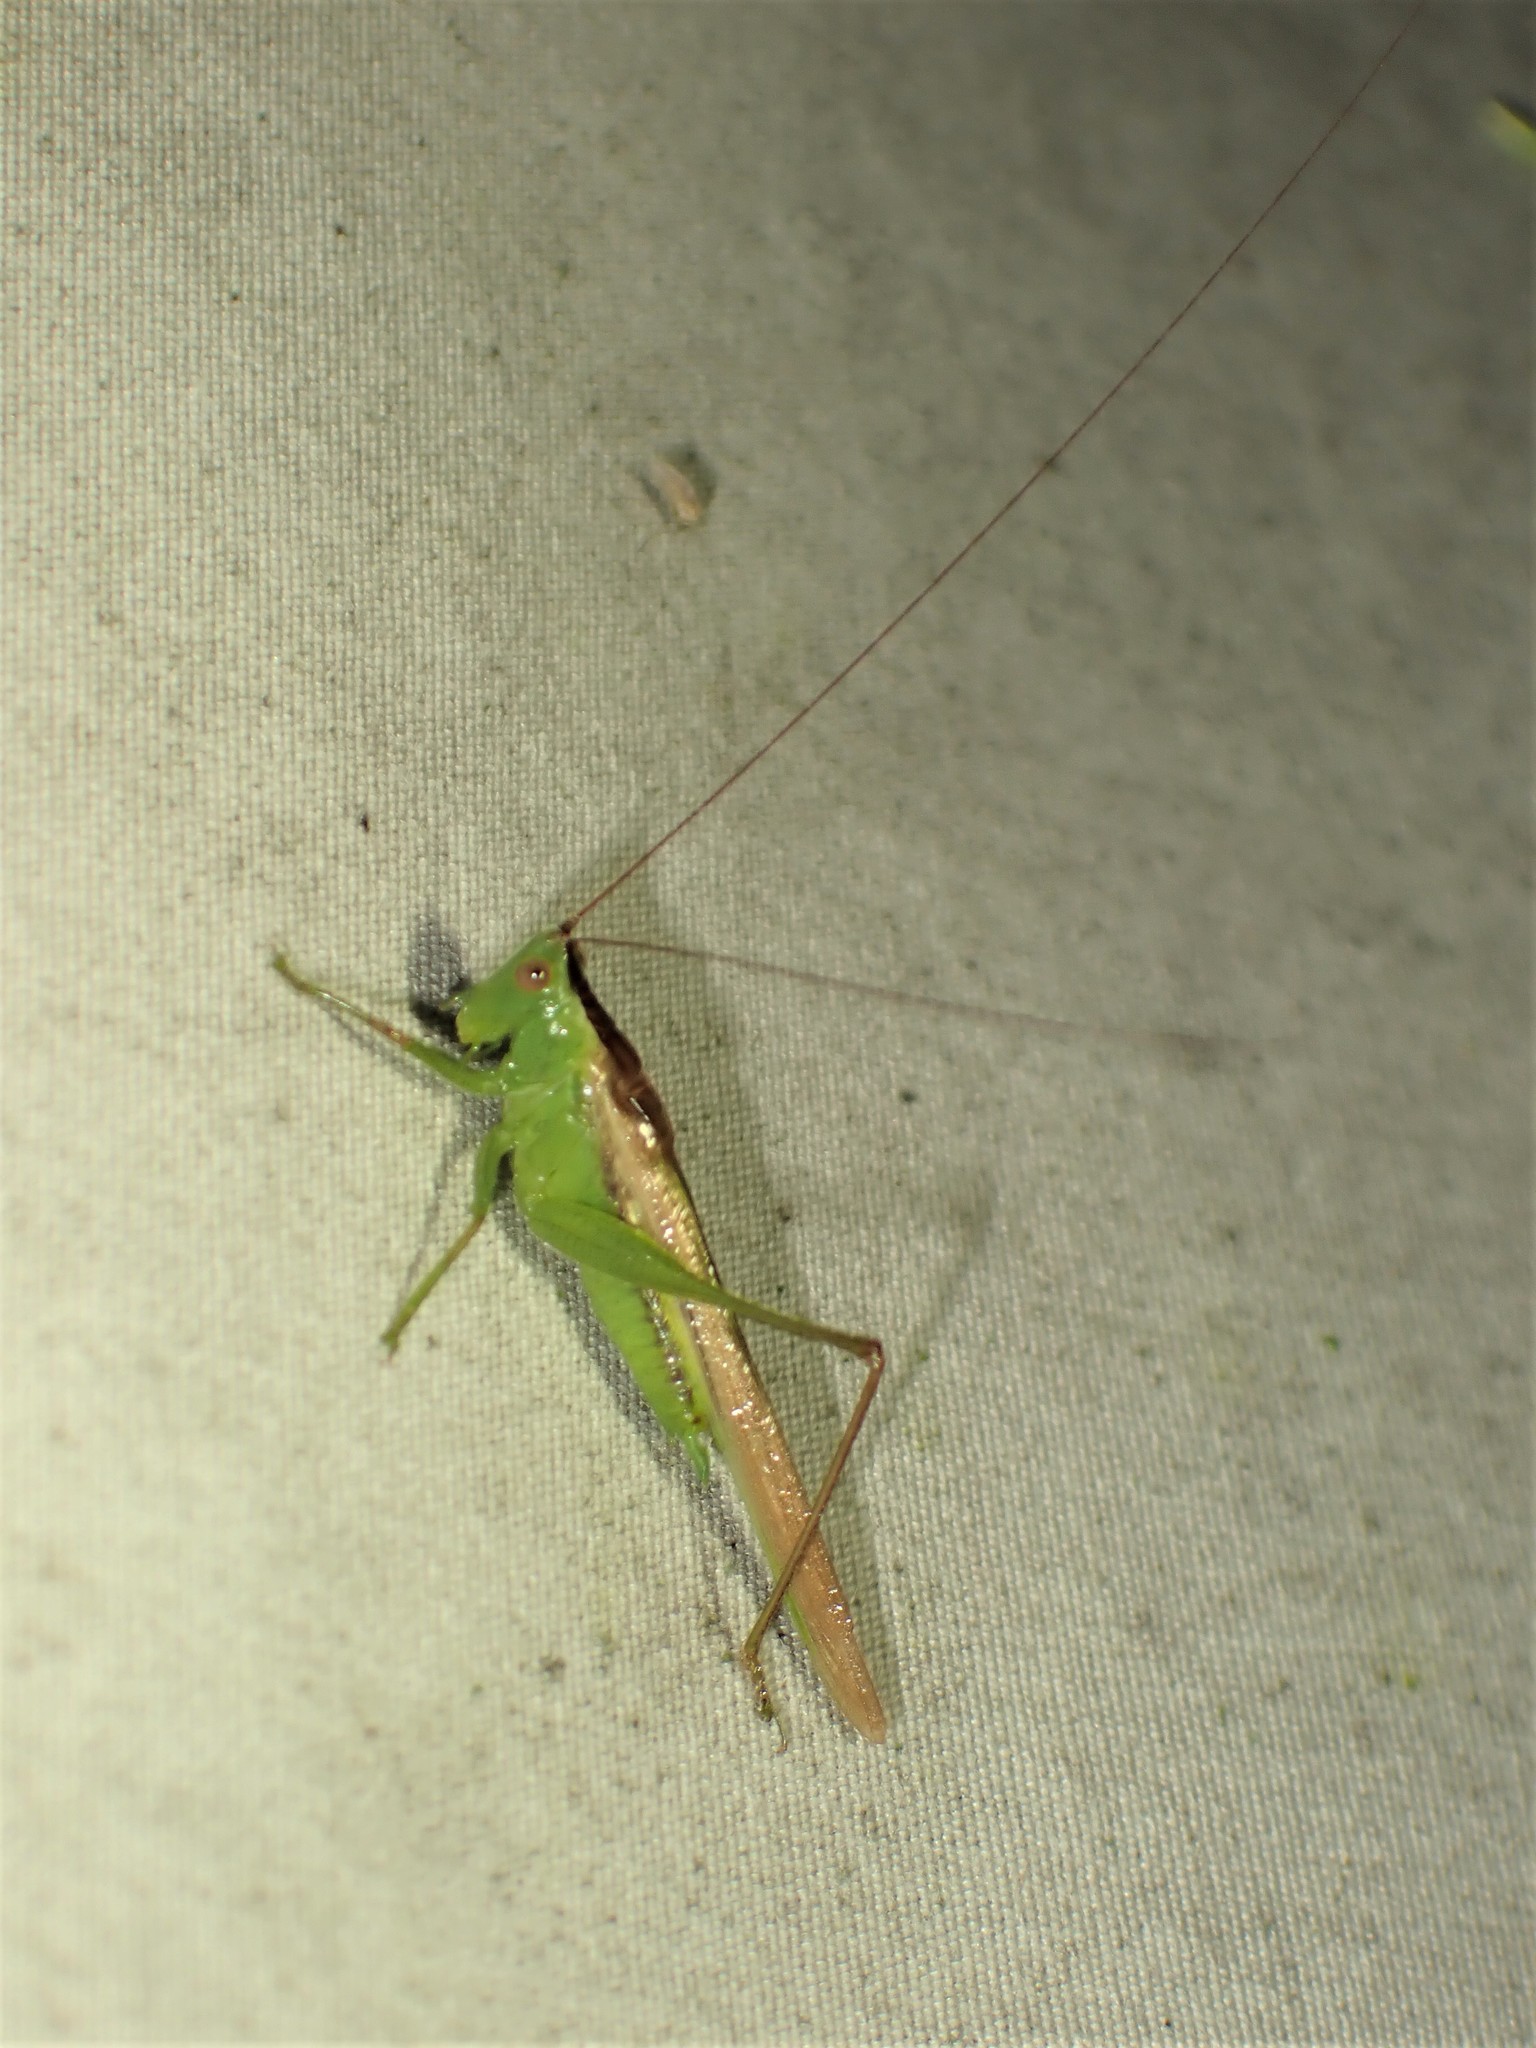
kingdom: Animalia
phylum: Arthropoda
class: Insecta
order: Orthoptera
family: Tettigoniidae
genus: Conocephalus
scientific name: Conocephalus fasciatus
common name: Slender meadow katydid
